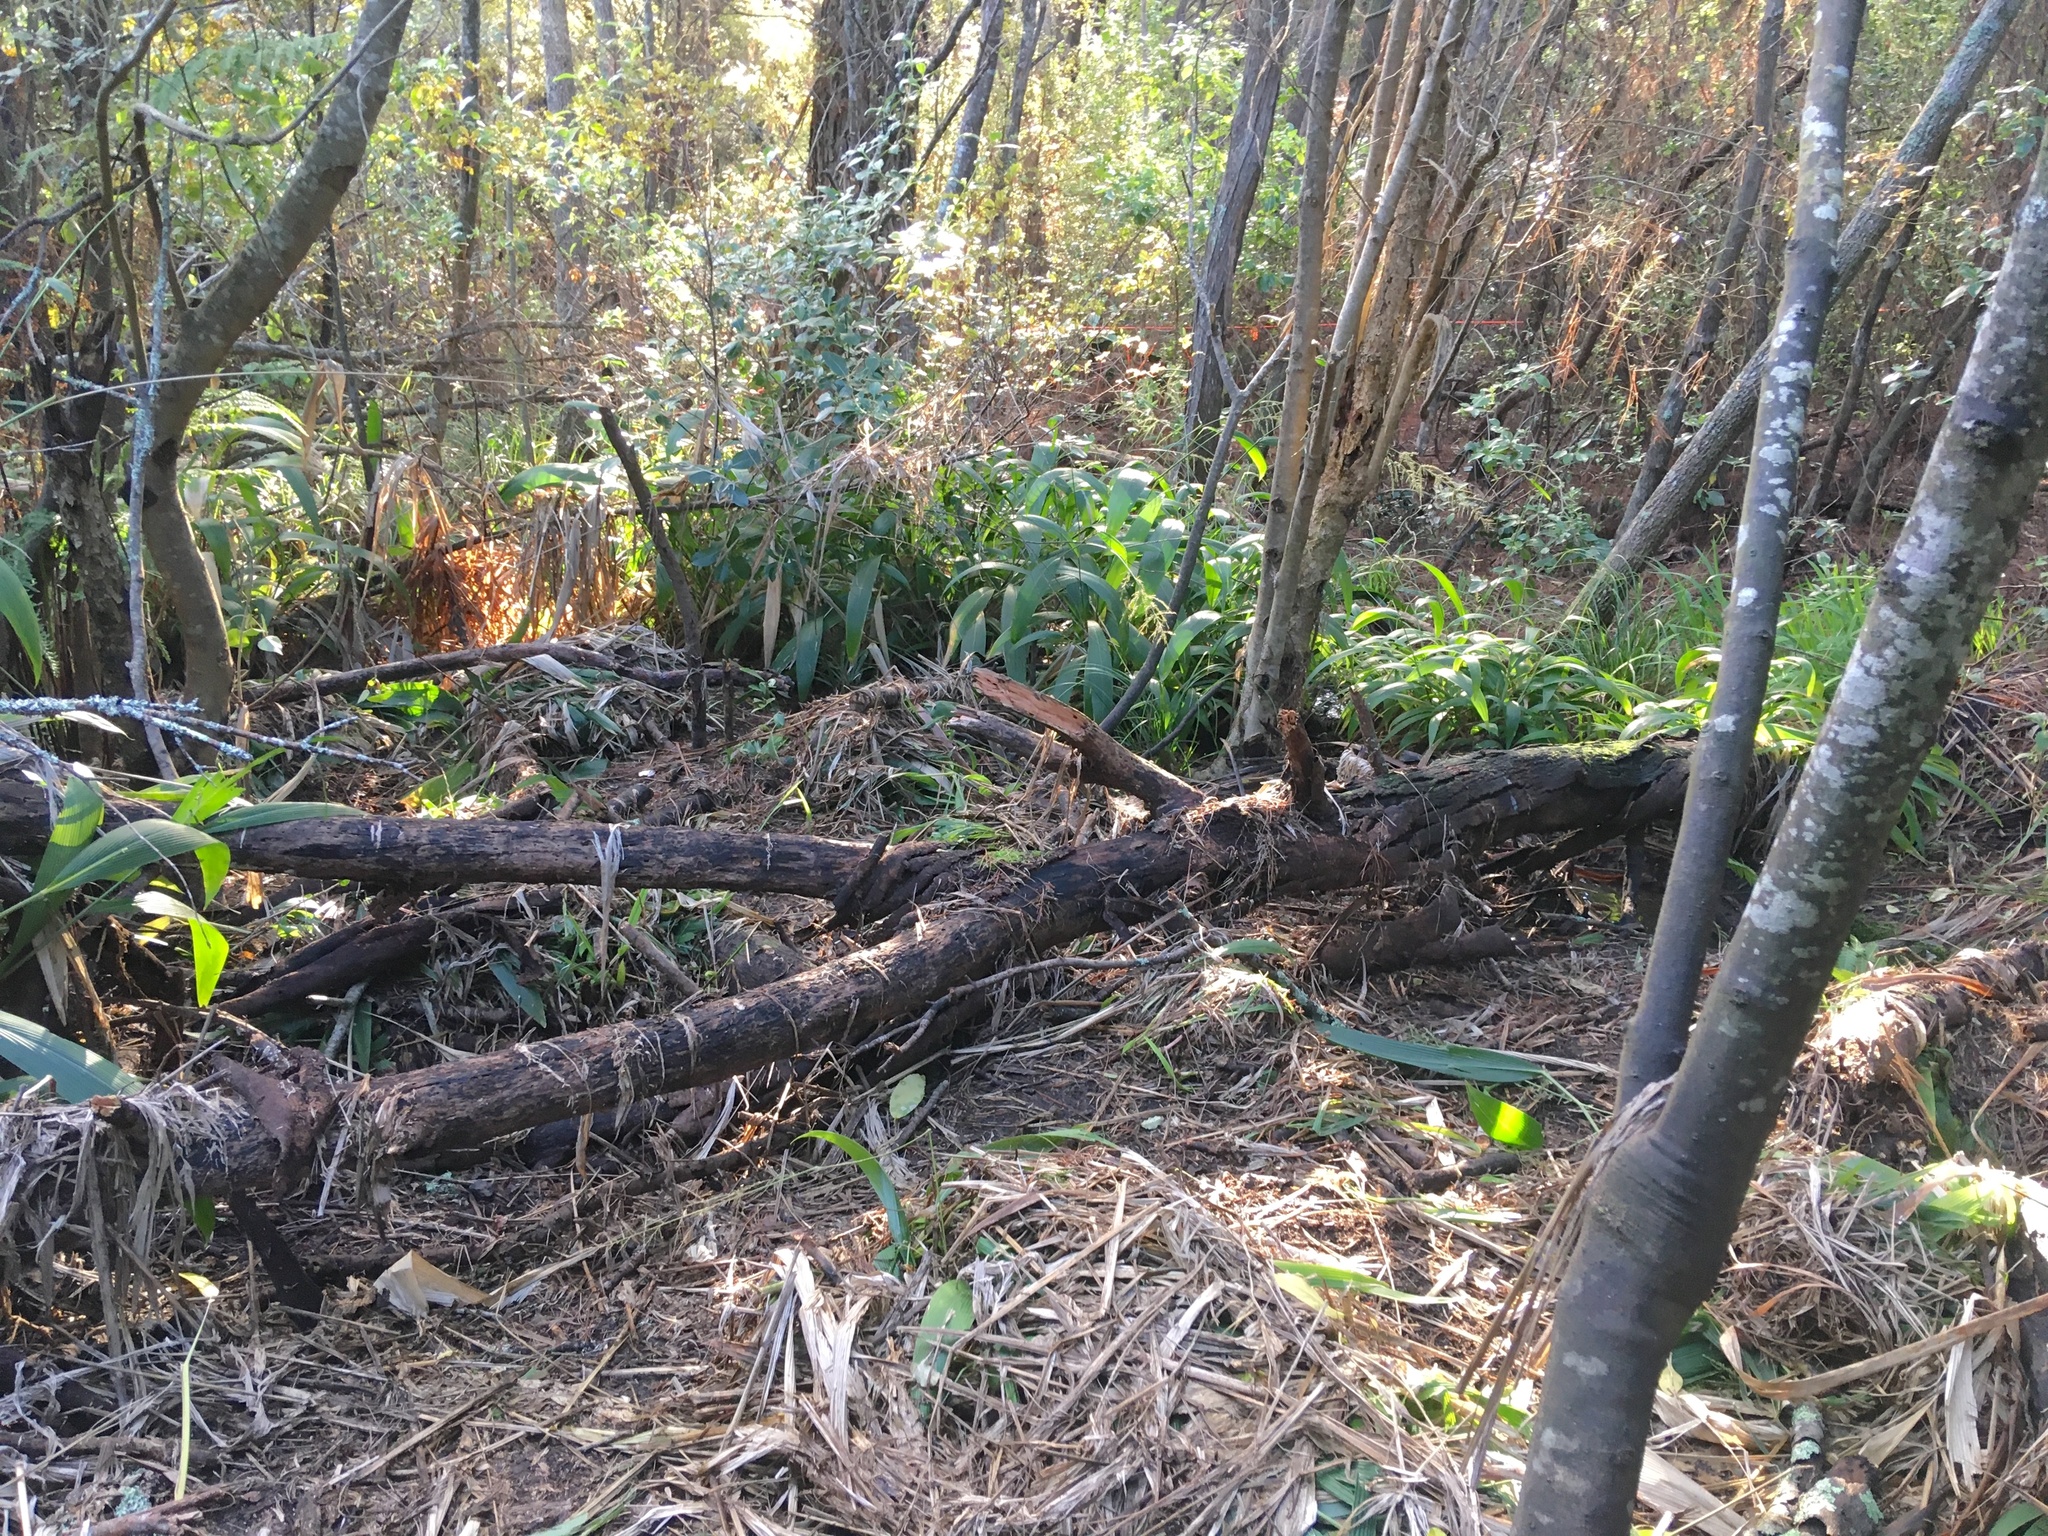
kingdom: Plantae
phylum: Tracheophyta
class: Magnoliopsida
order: Fabales
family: Fabaceae
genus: Paraserianthes
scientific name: Paraserianthes lophantha
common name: Plume albizia
